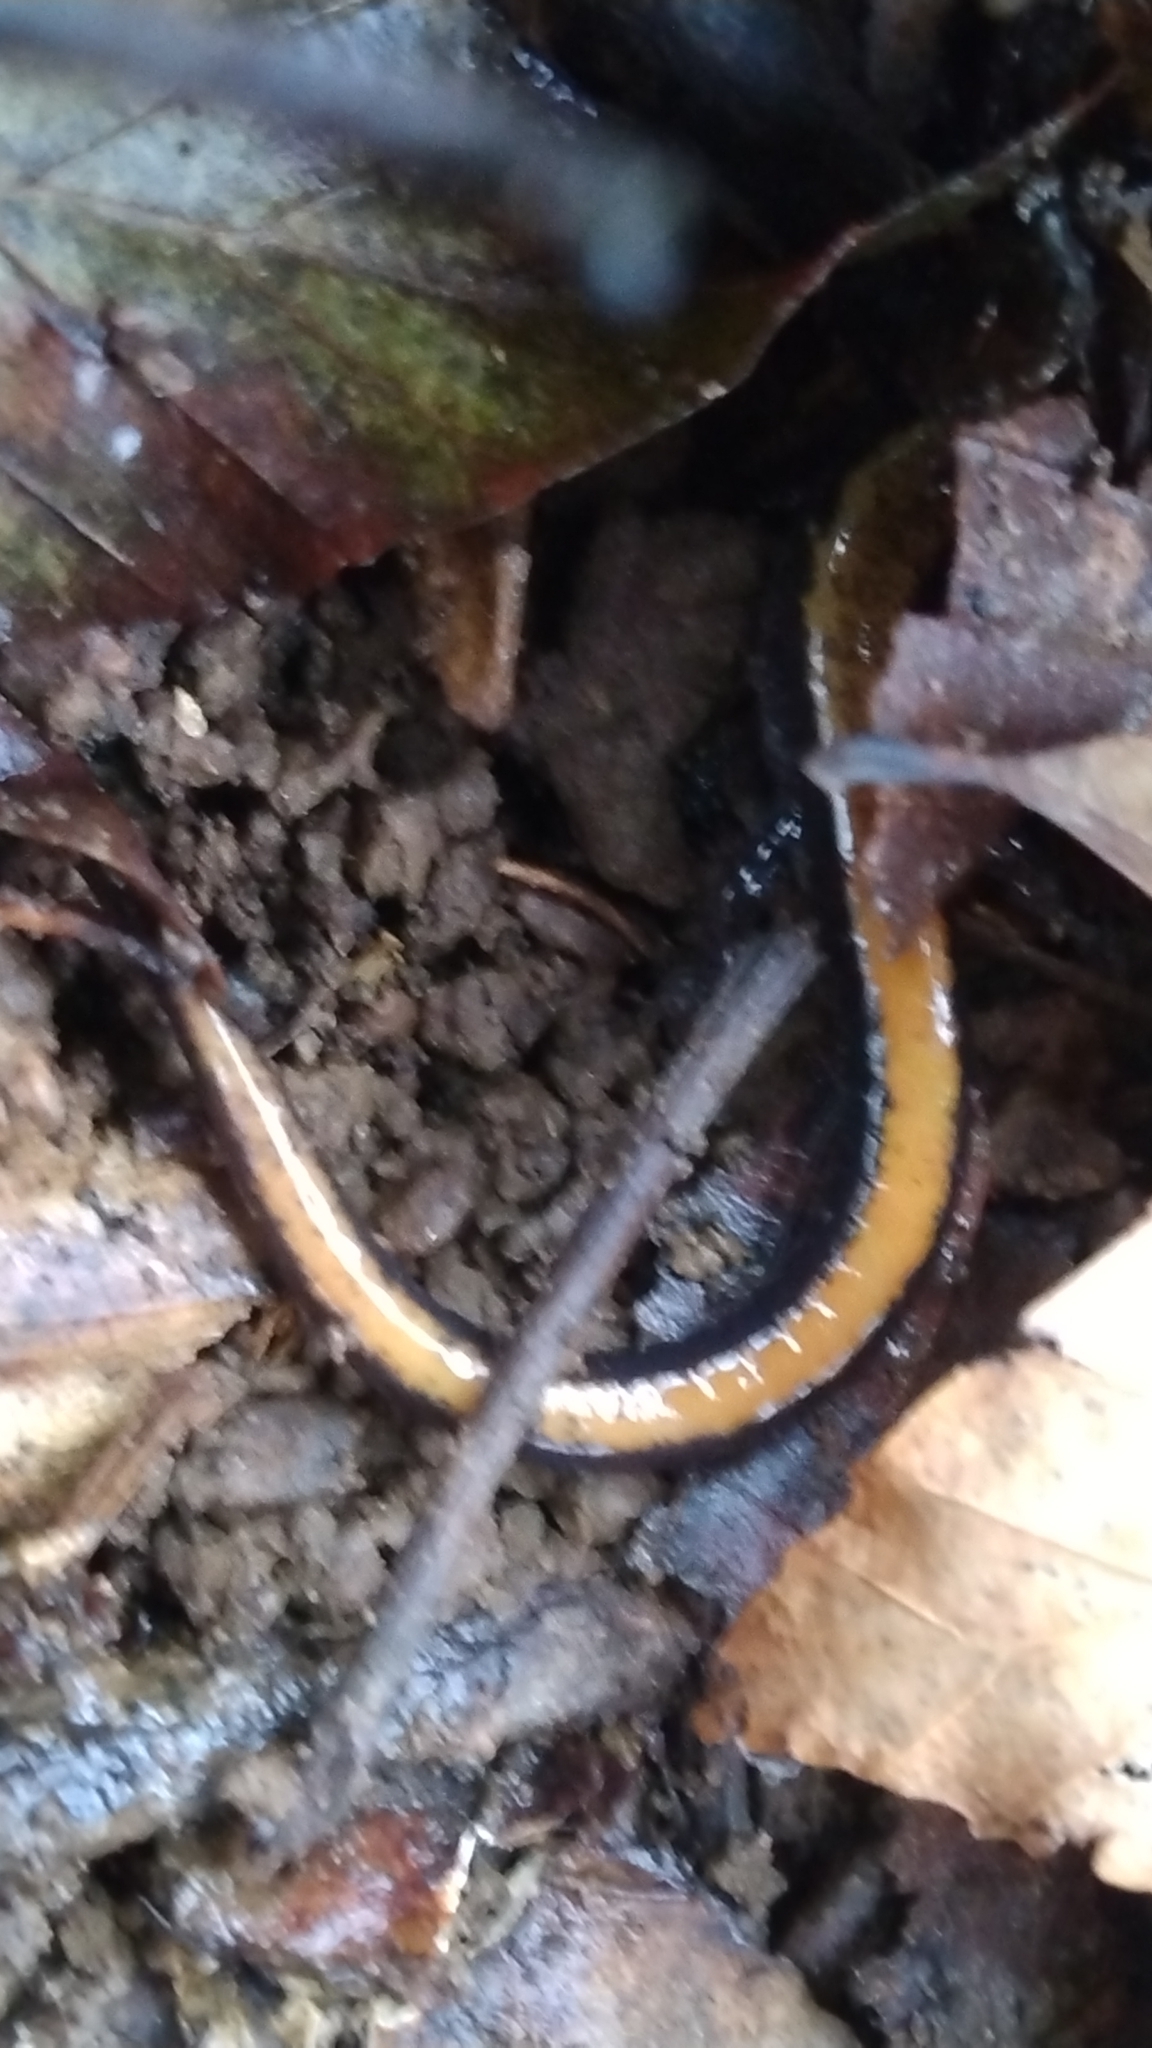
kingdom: Animalia
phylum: Chordata
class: Amphibia
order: Caudata
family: Plethodontidae
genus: Plethodon
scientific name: Plethodon cinereus
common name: Redback salamander
